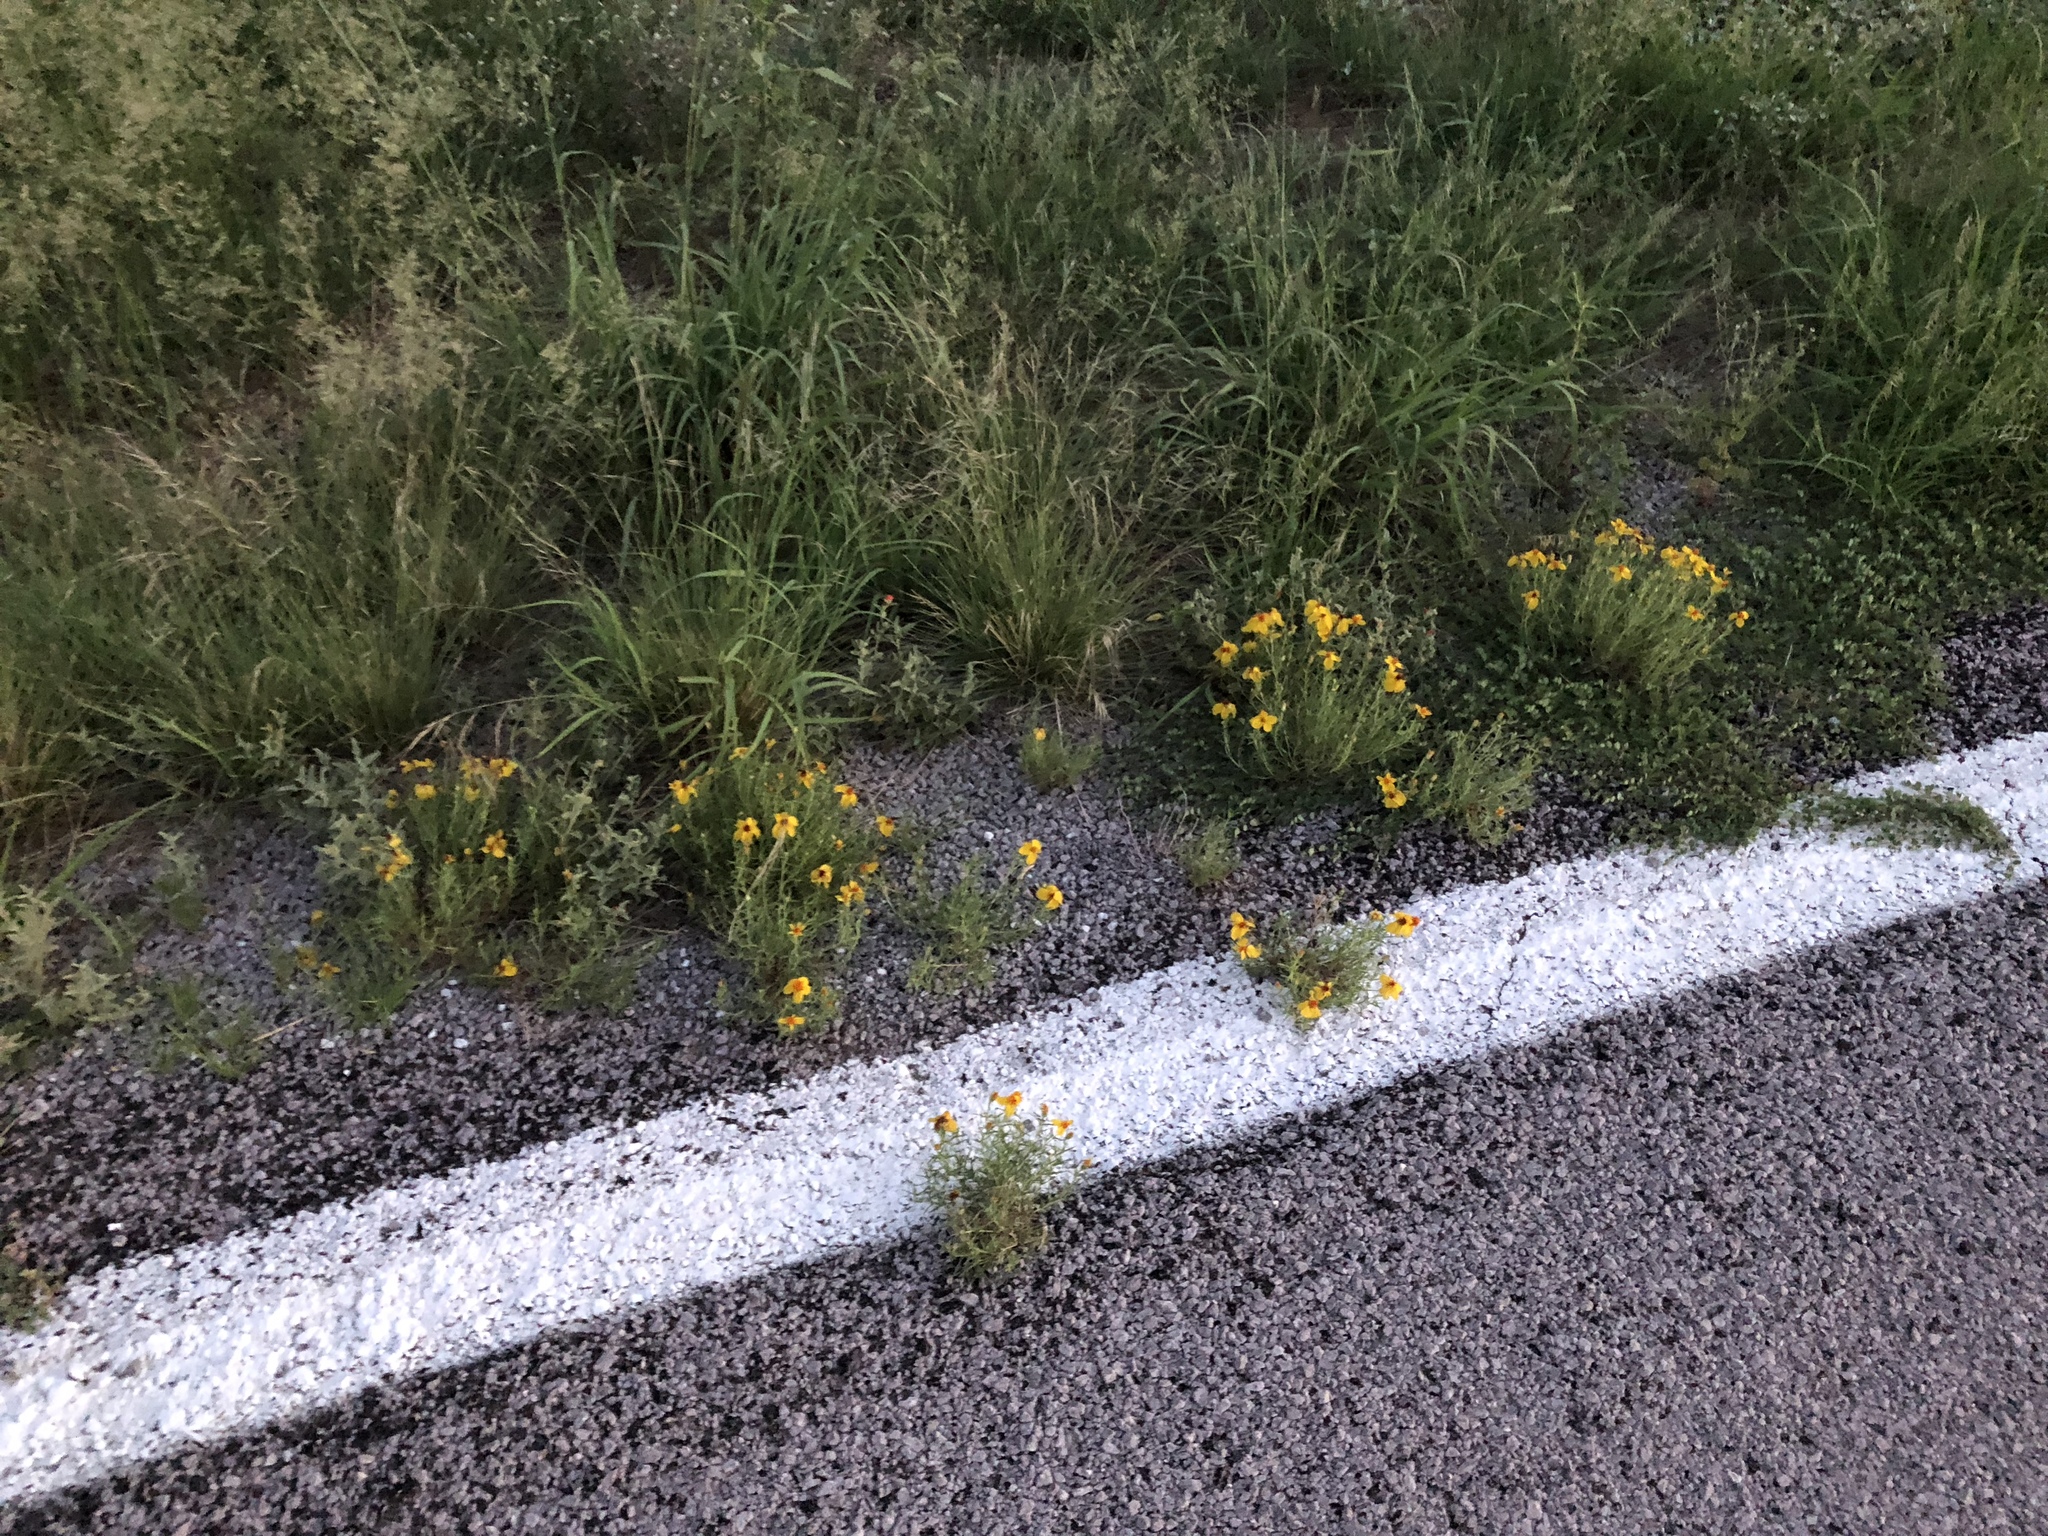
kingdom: Plantae
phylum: Tracheophyta
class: Magnoliopsida
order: Asterales
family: Asteraceae
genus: Zinnia
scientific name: Zinnia grandiflora
